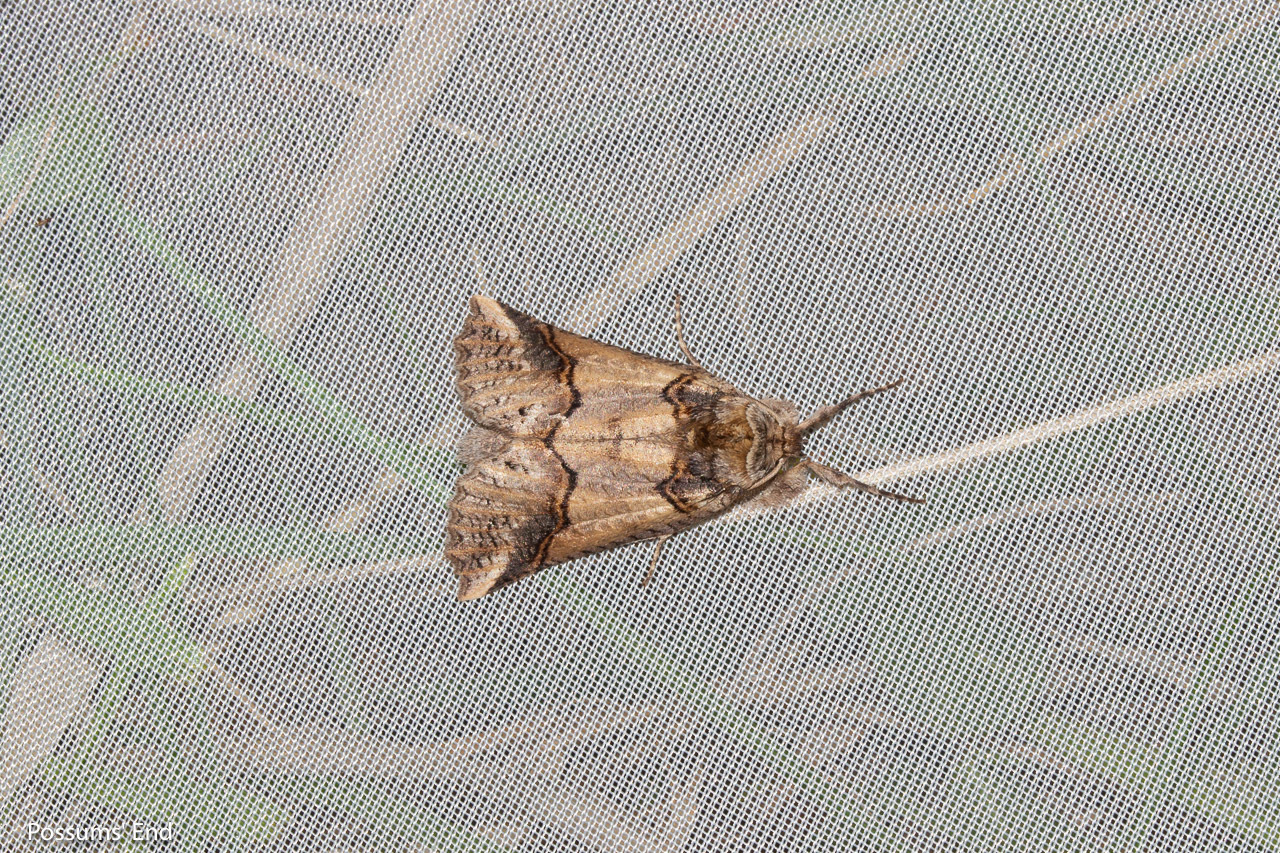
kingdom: Animalia
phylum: Arthropoda
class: Insecta
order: Lepidoptera
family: Geometridae
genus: Declana
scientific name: Declana
